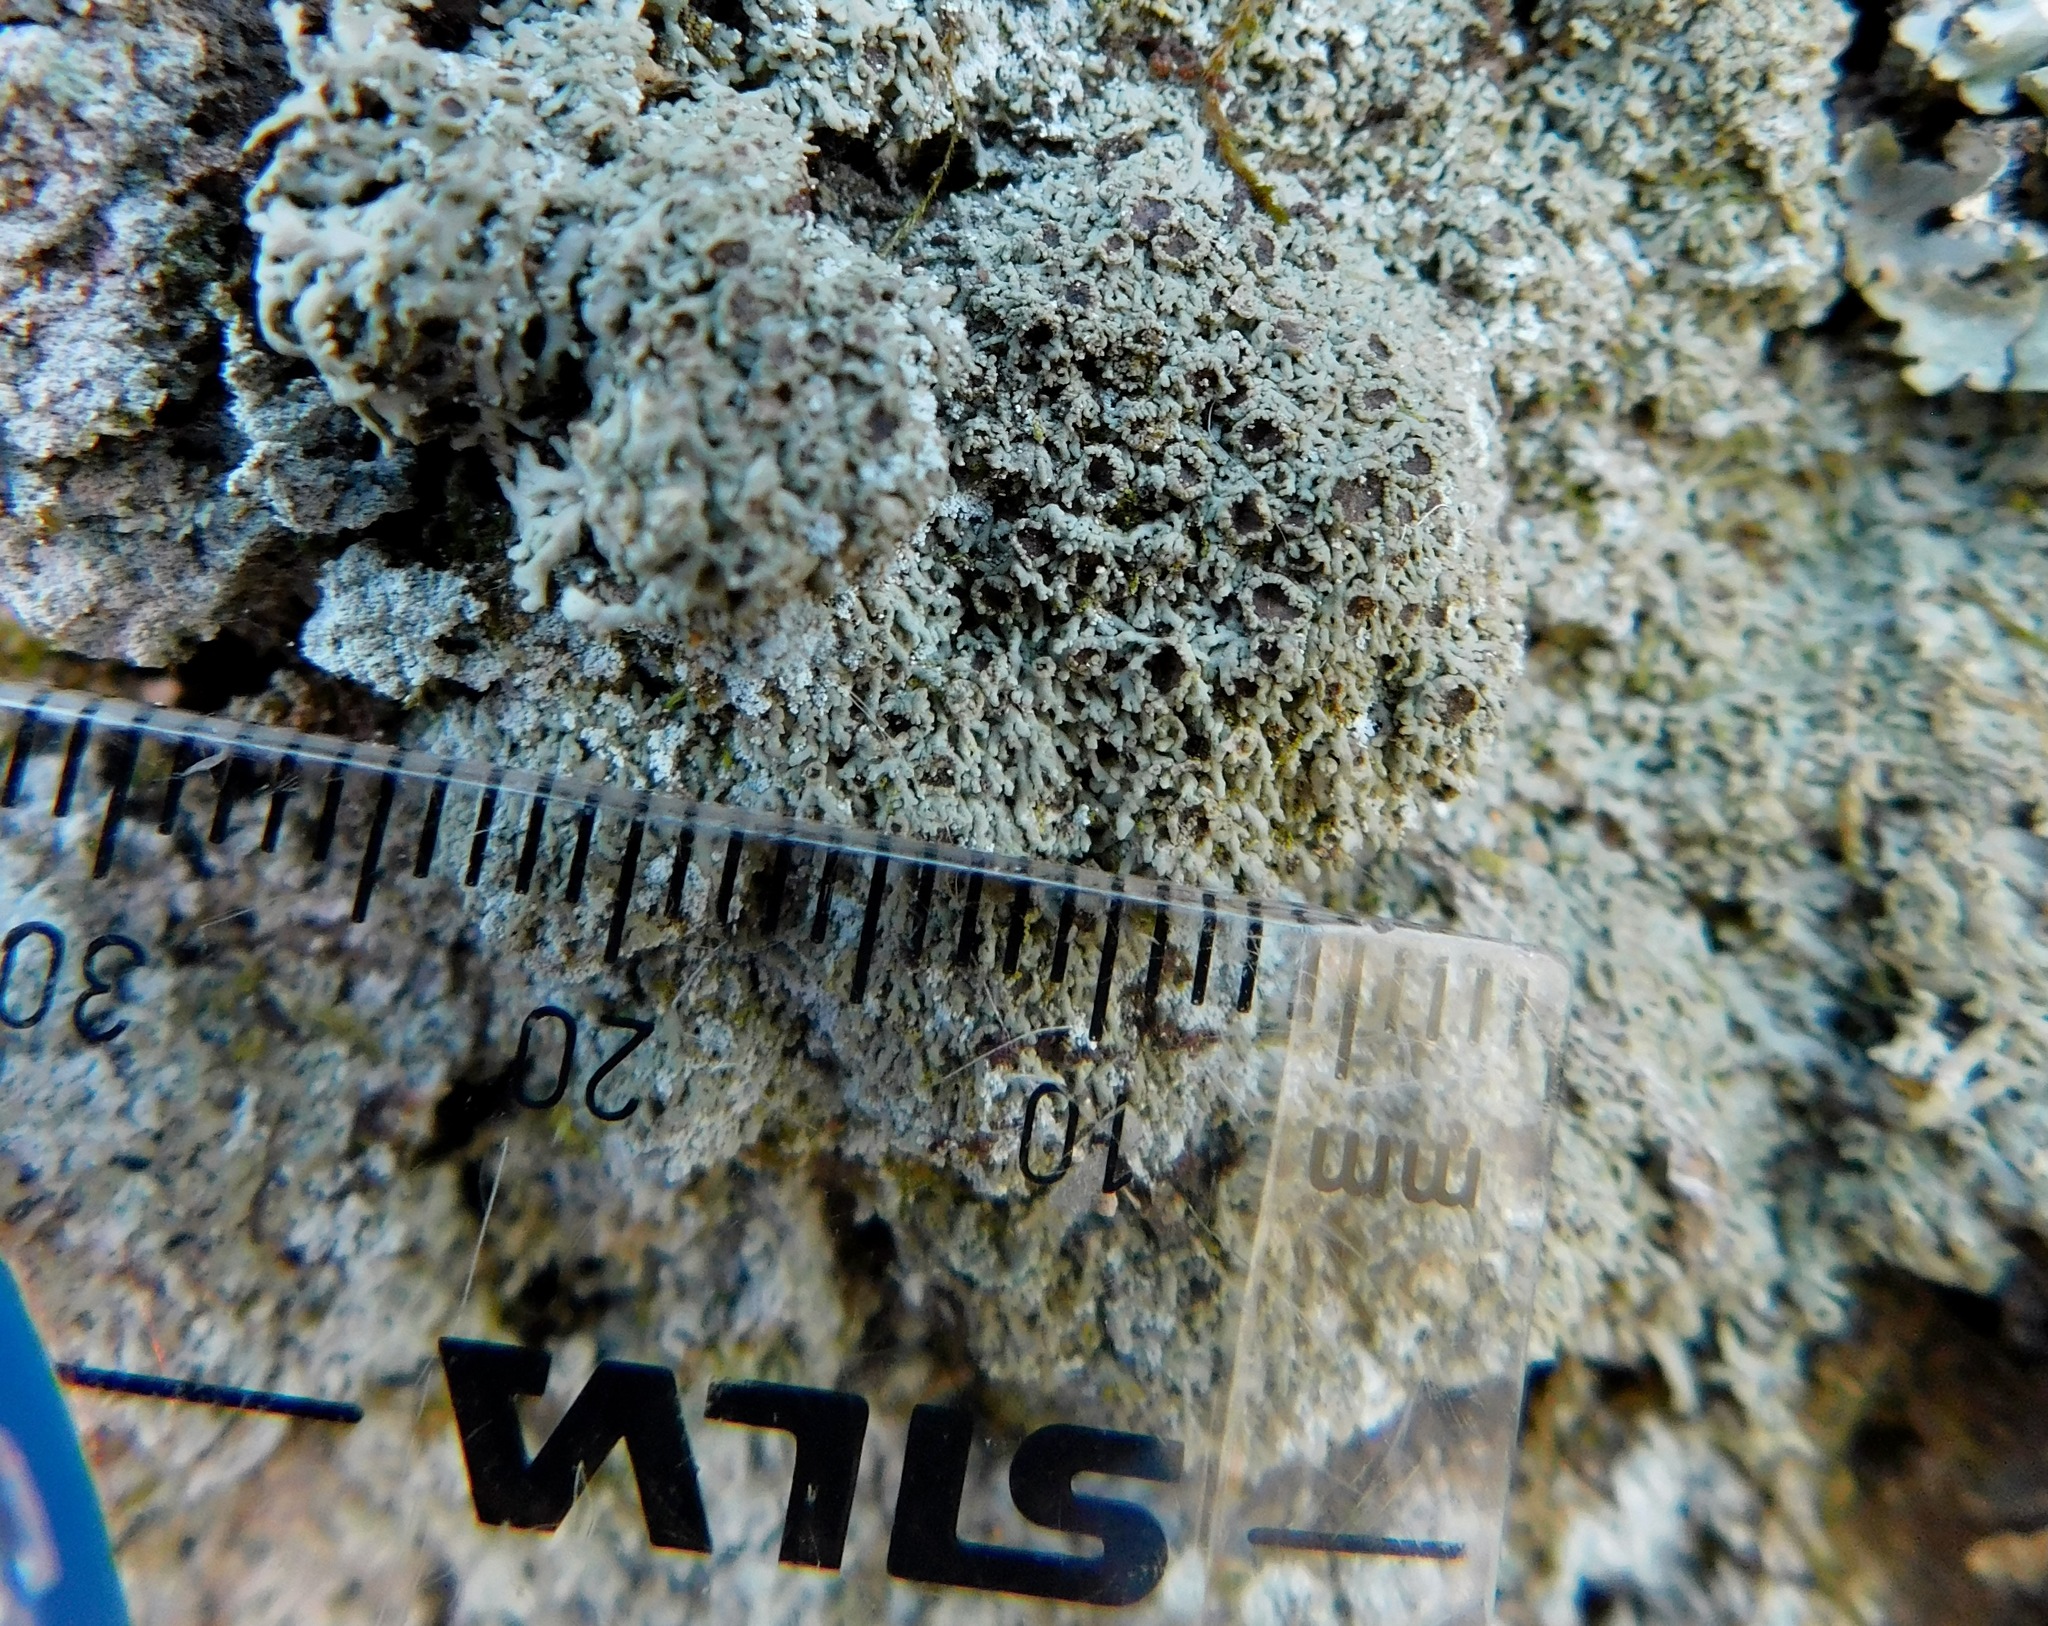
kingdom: Fungi
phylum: Ascomycota
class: Lecanoromycetes
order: Caliciales
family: Physciaceae
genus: Kurokawia
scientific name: Kurokawia palmulata
